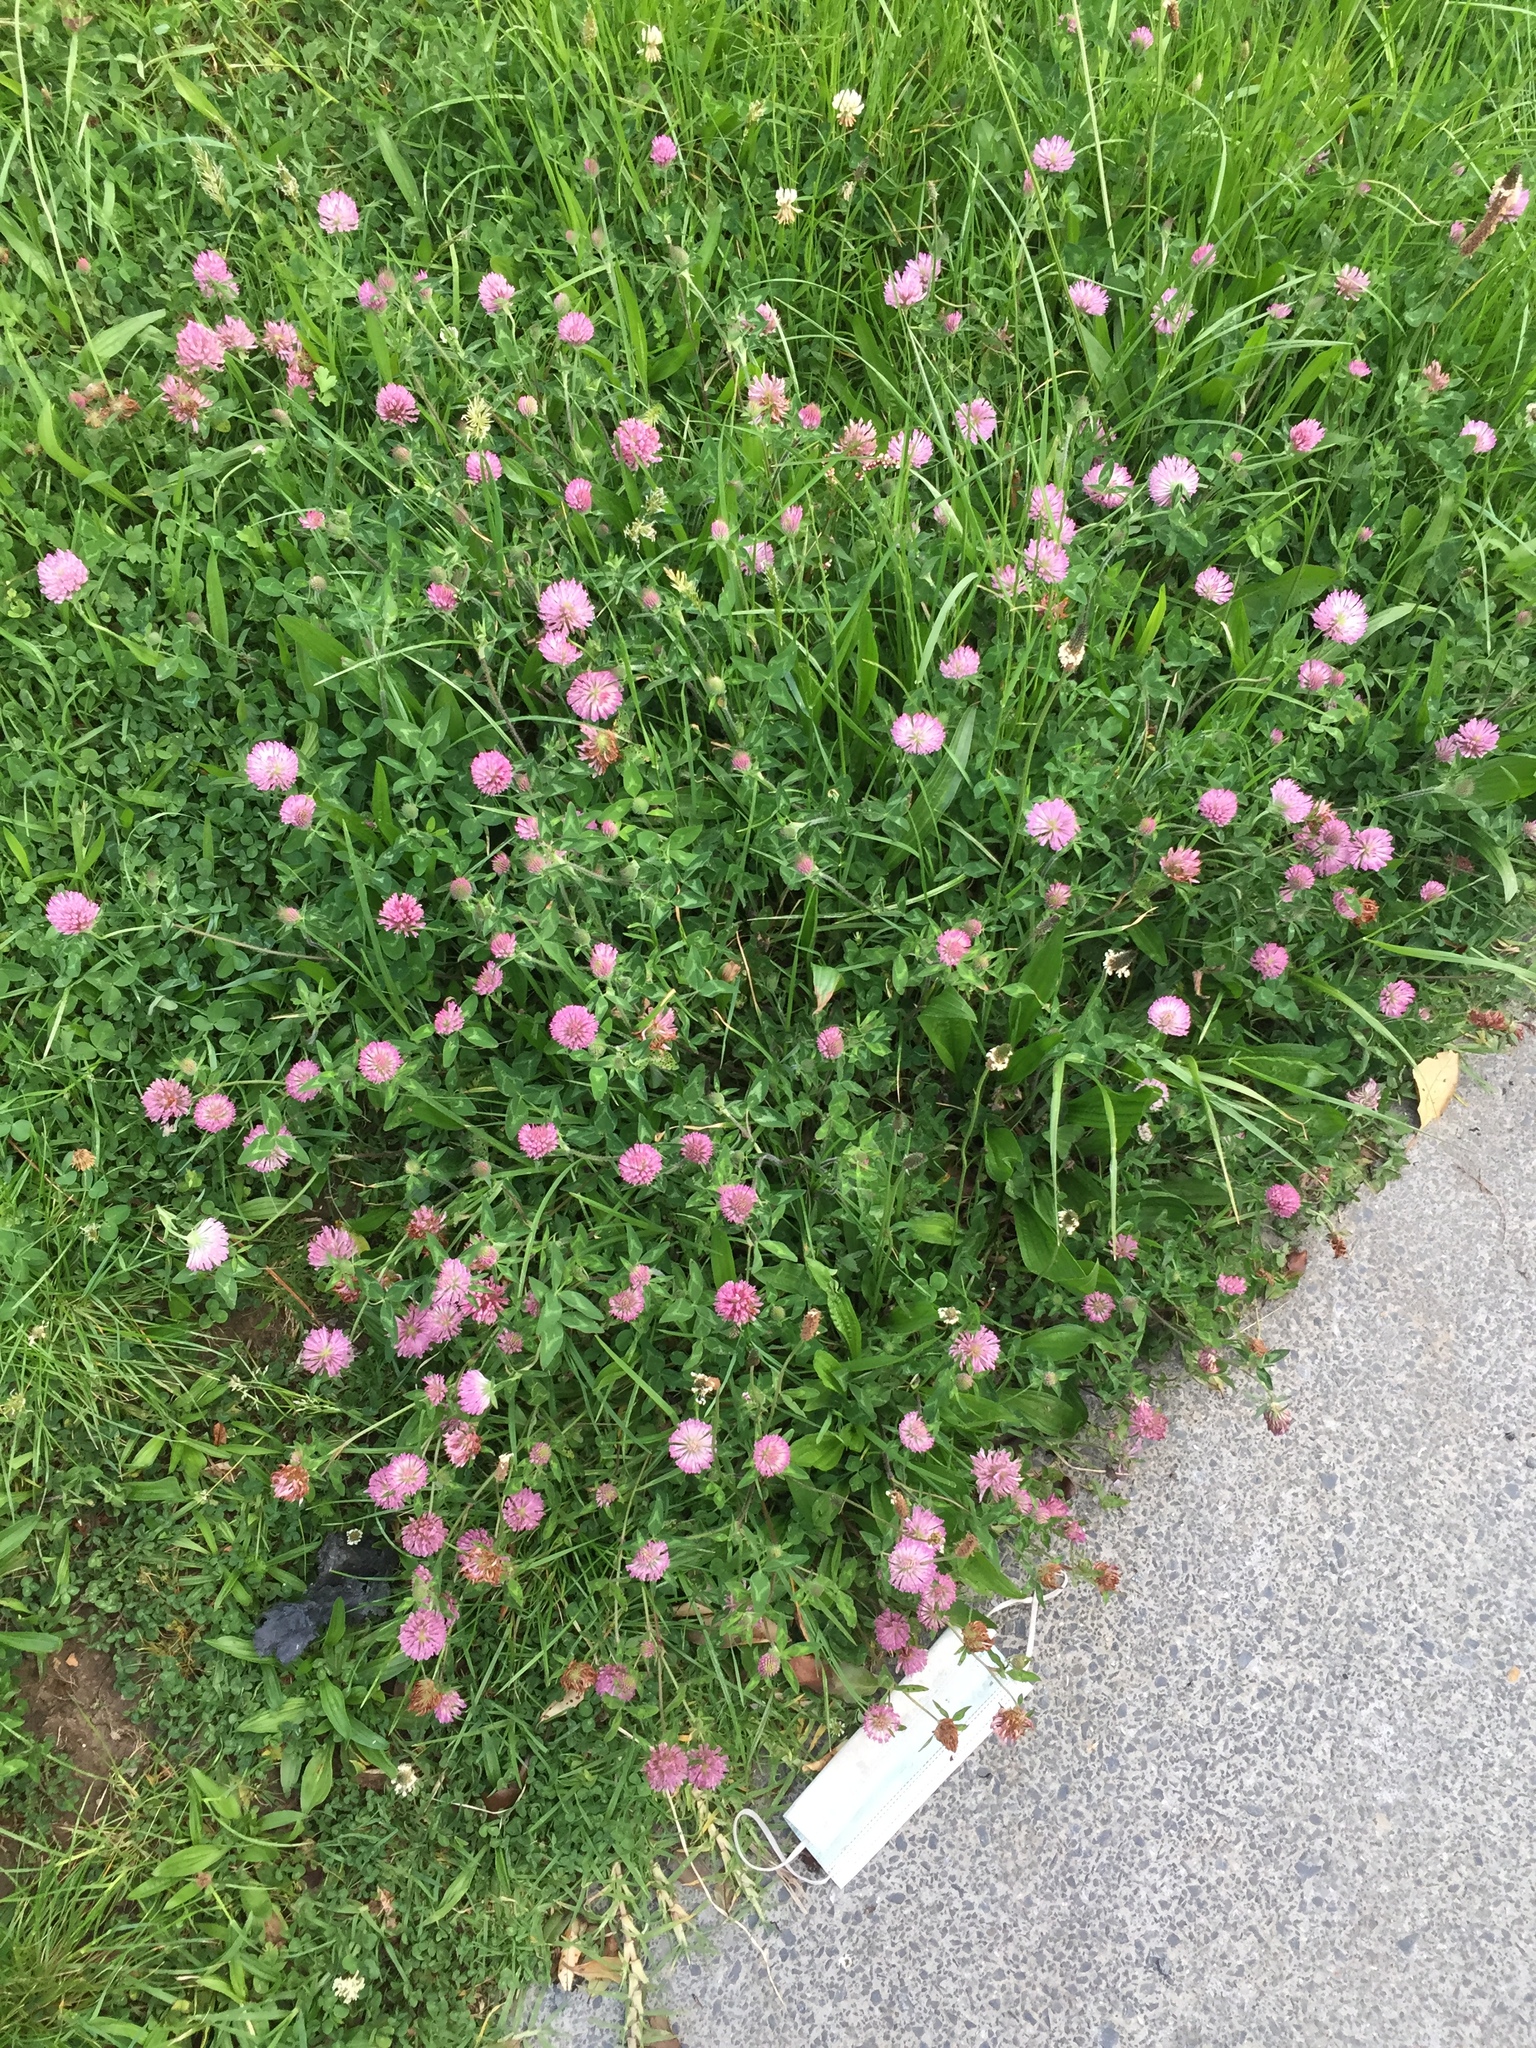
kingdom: Plantae
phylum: Tracheophyta
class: Magnoliopsida
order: Fabales
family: Fabaceae
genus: Trifolium
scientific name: Trifolium pratense
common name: Red clover
